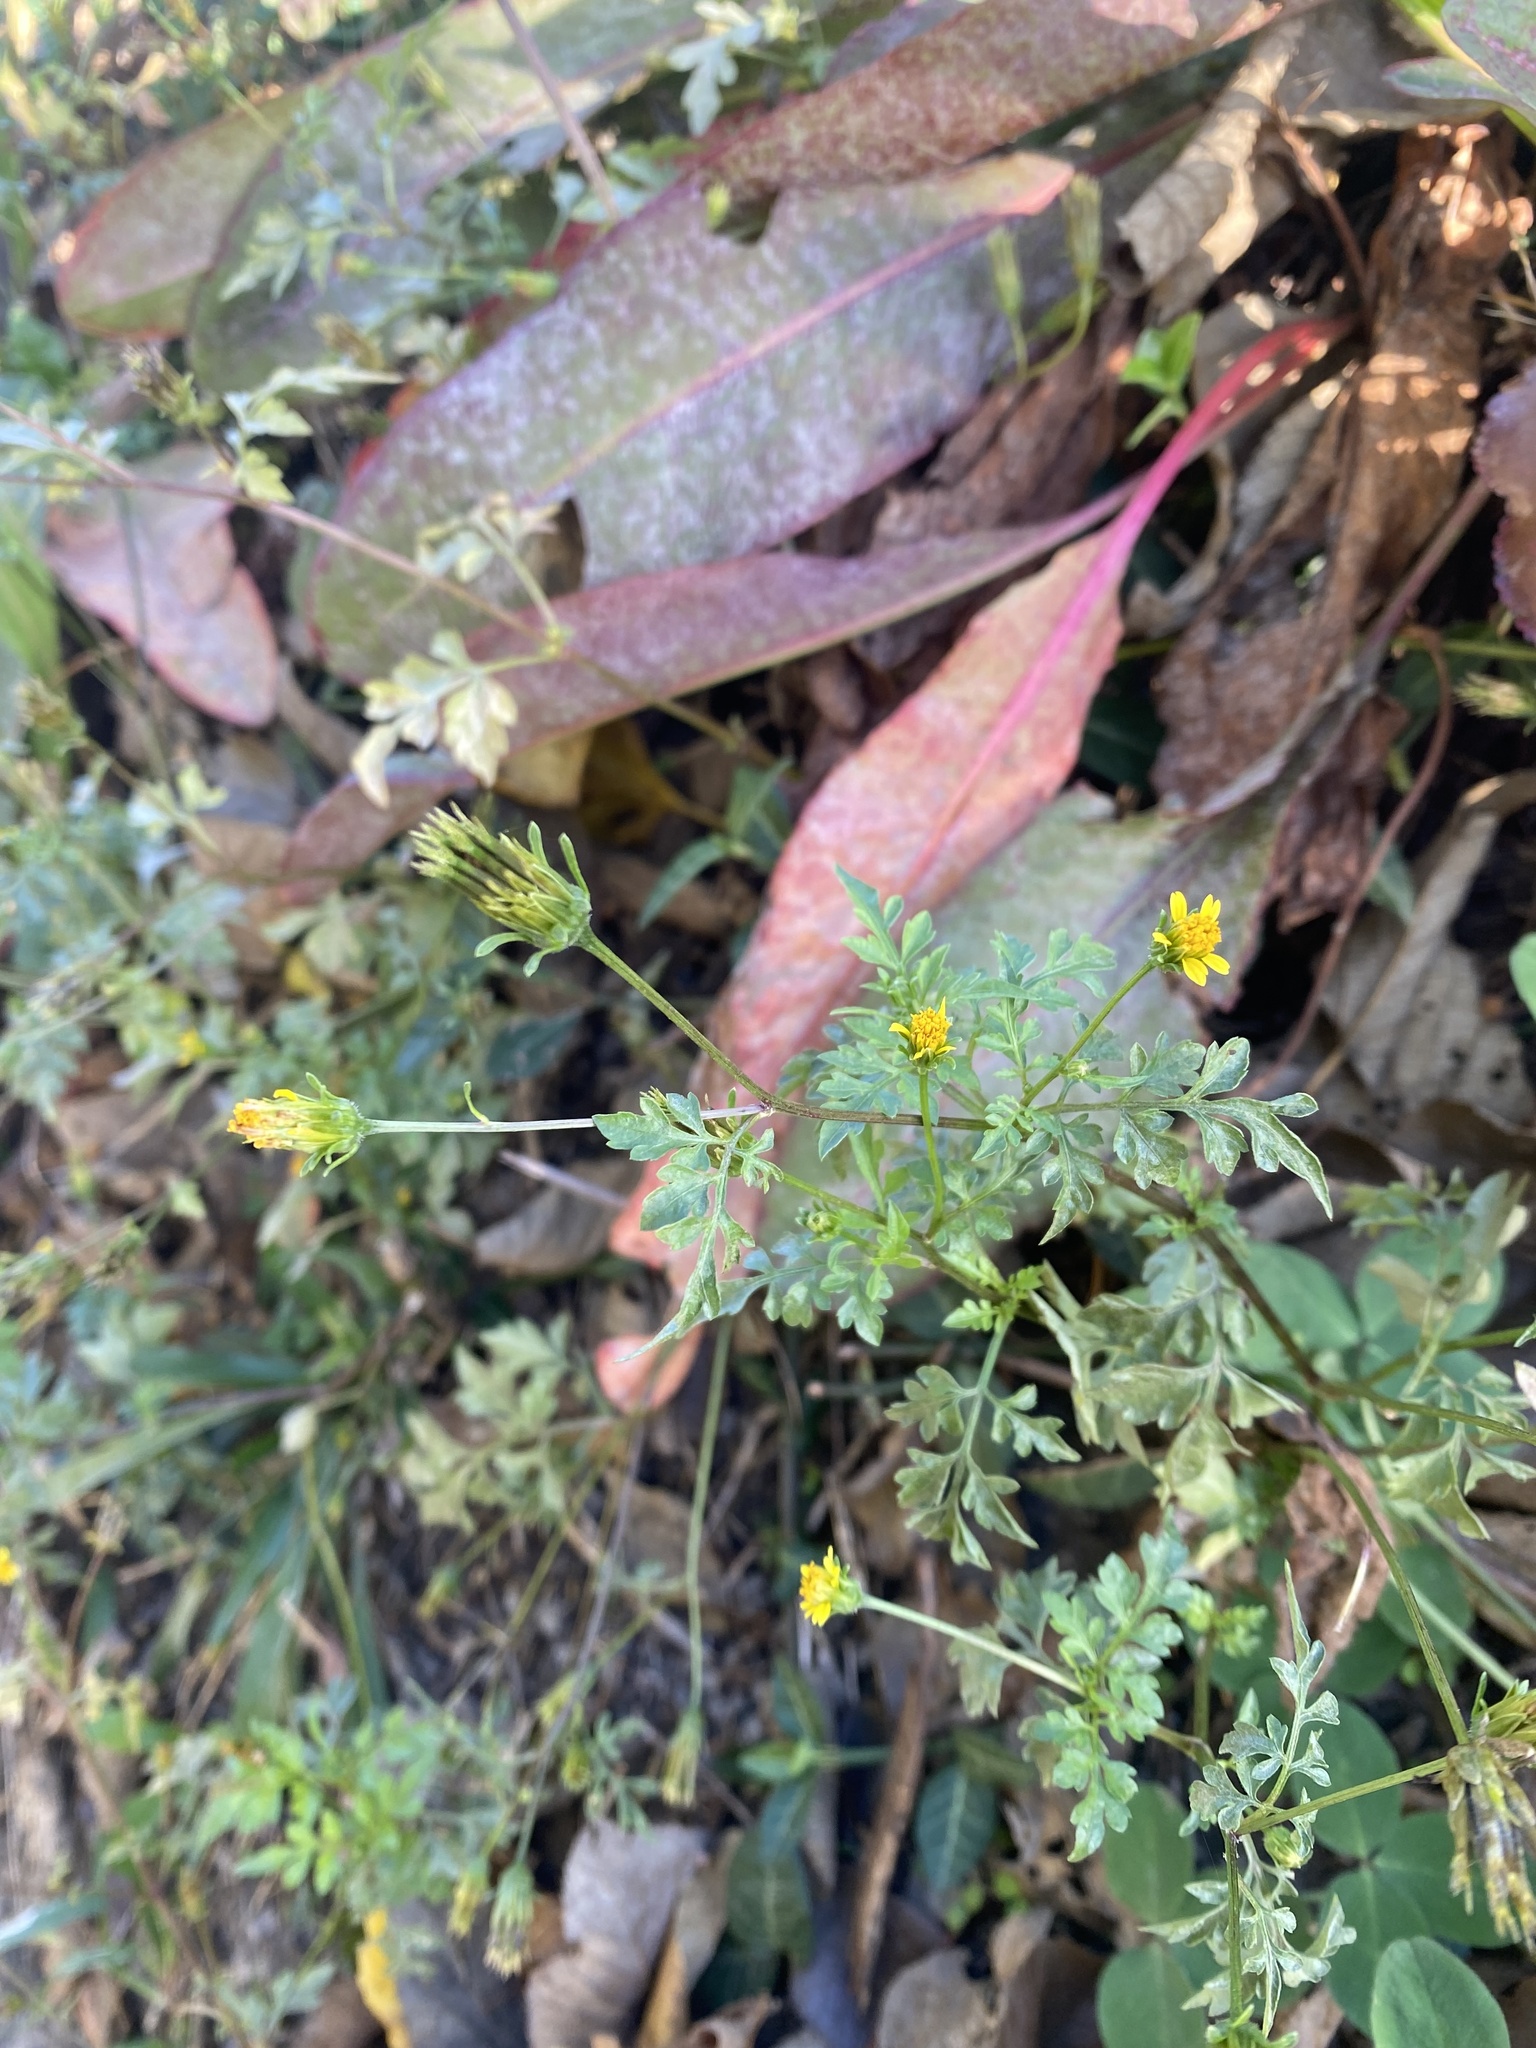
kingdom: Plantae
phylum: Tracheophyta
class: Magnoliopsida
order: Asterales
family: Asteraceae
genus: Bidens
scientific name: Bidens bipinnata
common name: Spanish-needles
